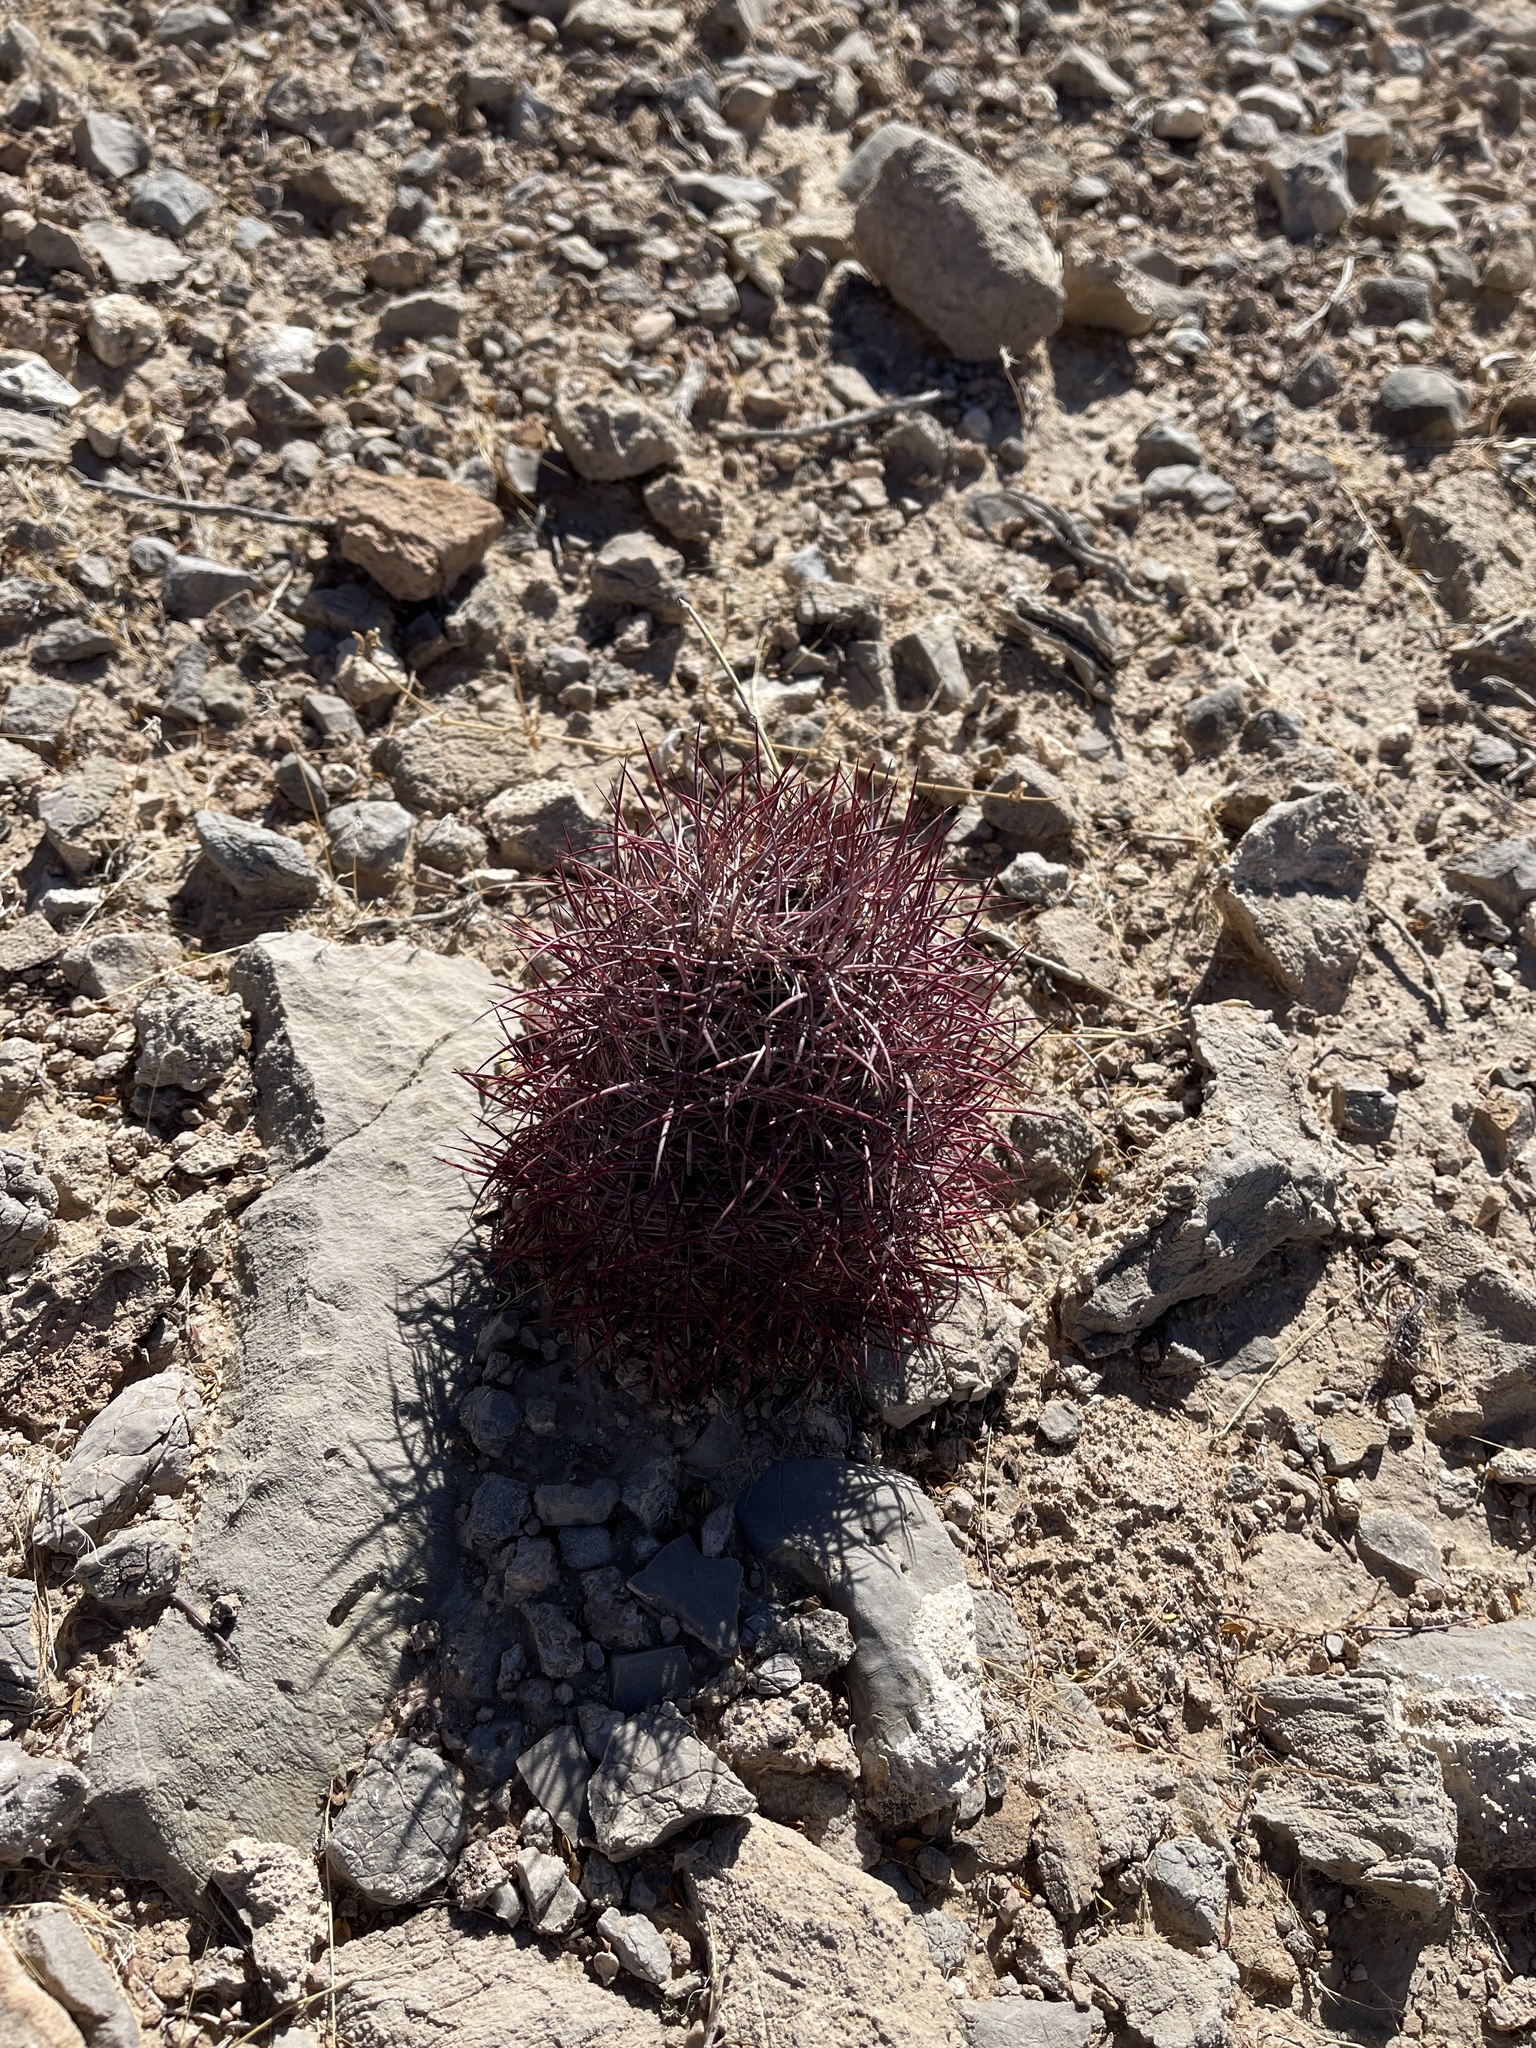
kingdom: Plantae
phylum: Tracheophyta
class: Magnoliopsida
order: Caryophyllales
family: Cactaceae
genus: Sclerocactus
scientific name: Sclerocactus johnsonii
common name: Eight-spine fishhook cactus
